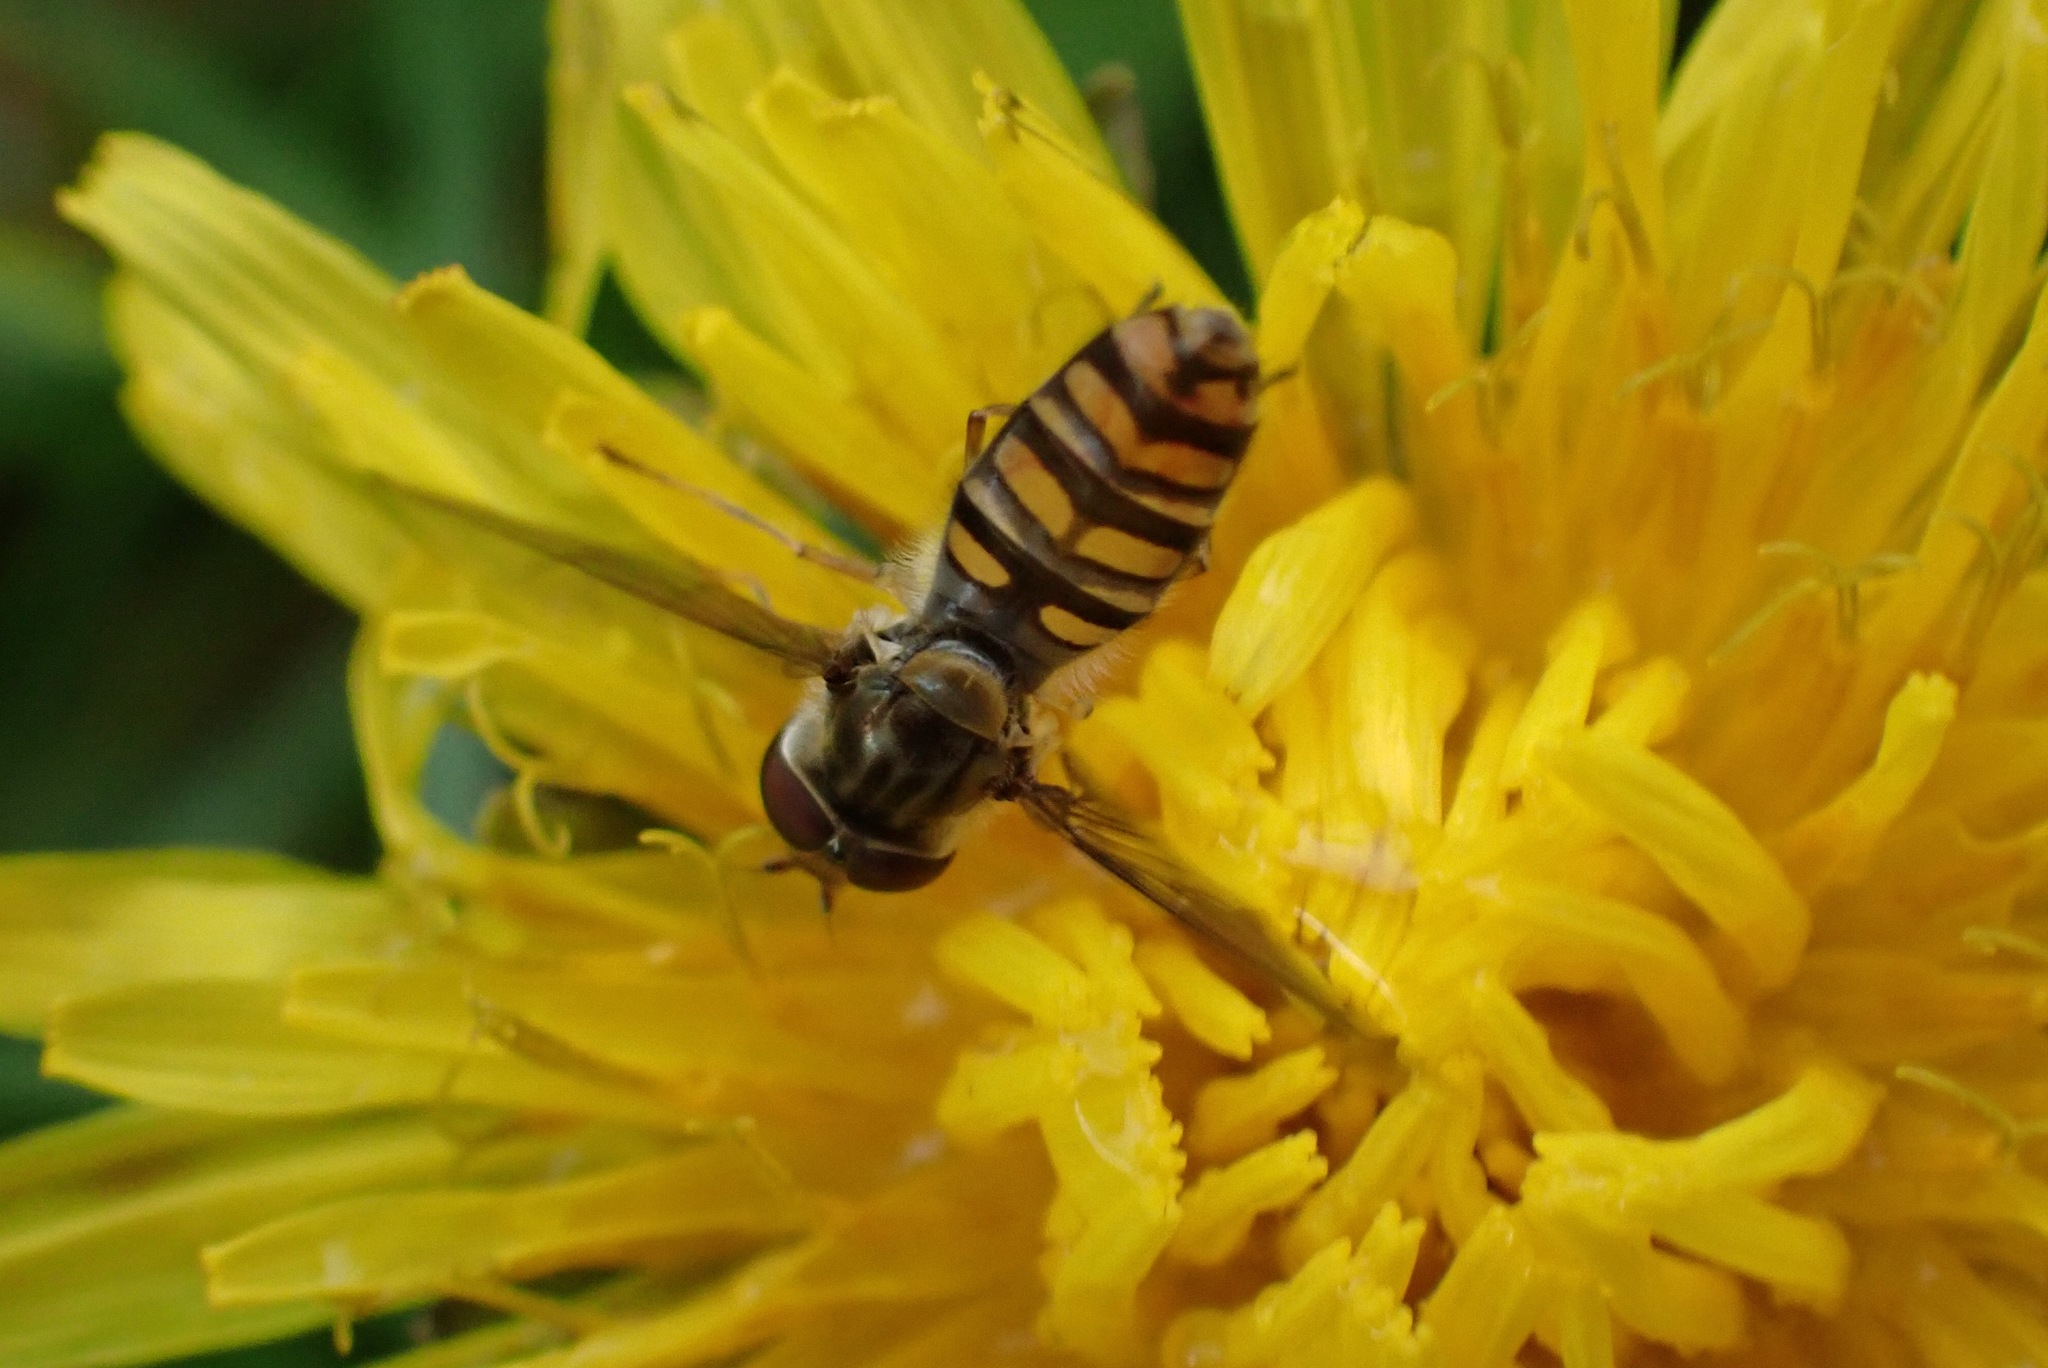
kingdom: Animalia
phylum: Arthropoda
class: Insecta
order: Diptera
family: Syrphidae
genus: Episyrphus
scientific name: Episyrphus balteatus
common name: Marmalade hoverfly
